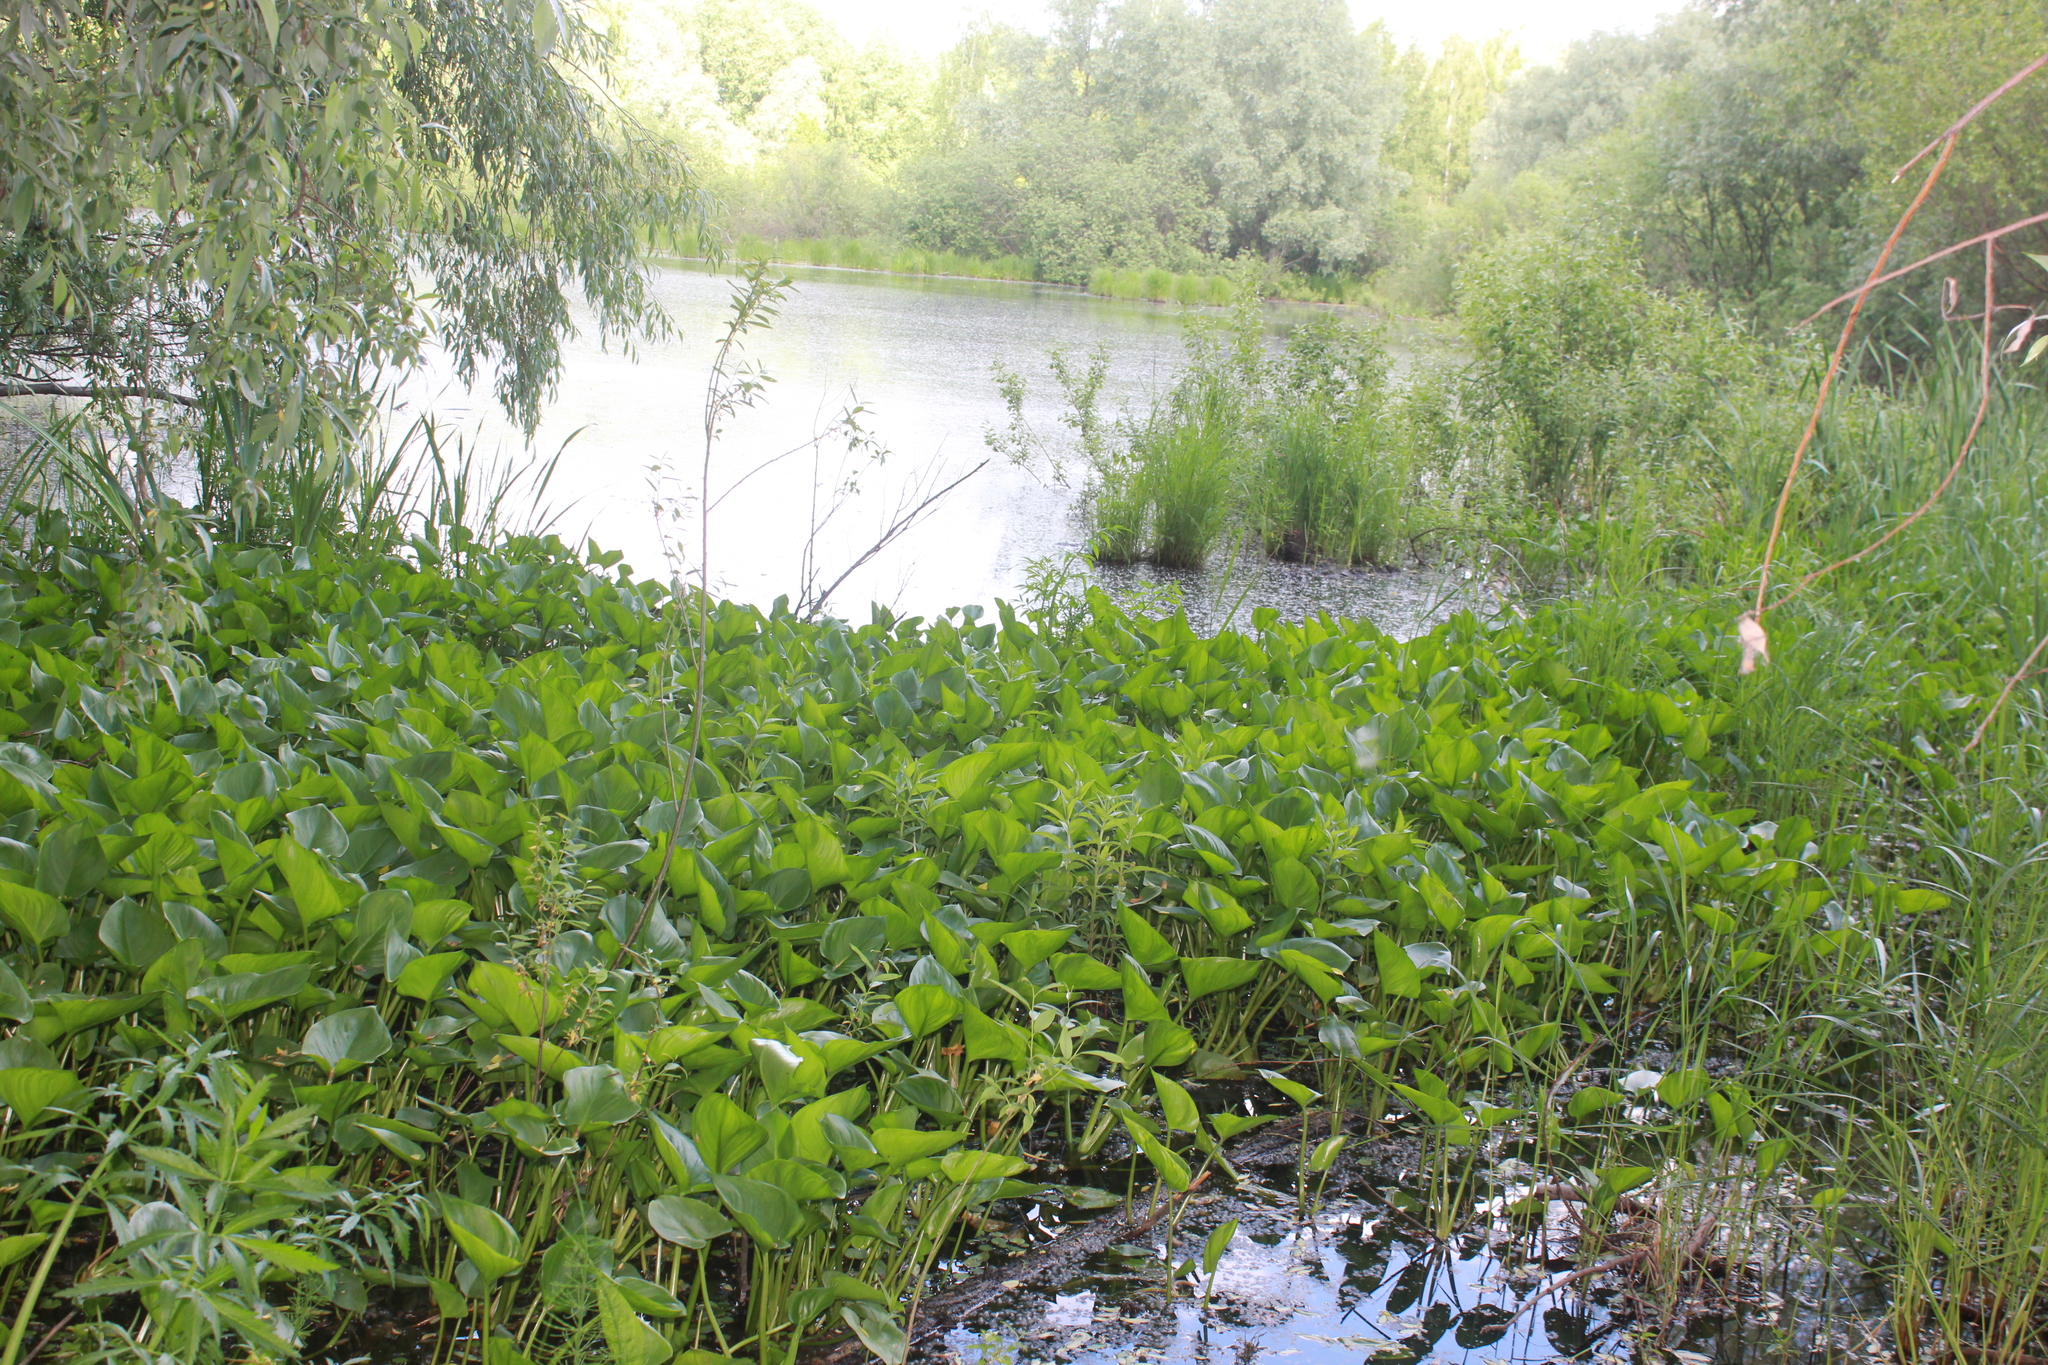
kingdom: Plantae
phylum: Tracheophyta
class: Liliopsida
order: Alismatales
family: Araceae
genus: Calla
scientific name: Calla palustris
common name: Bog arum
